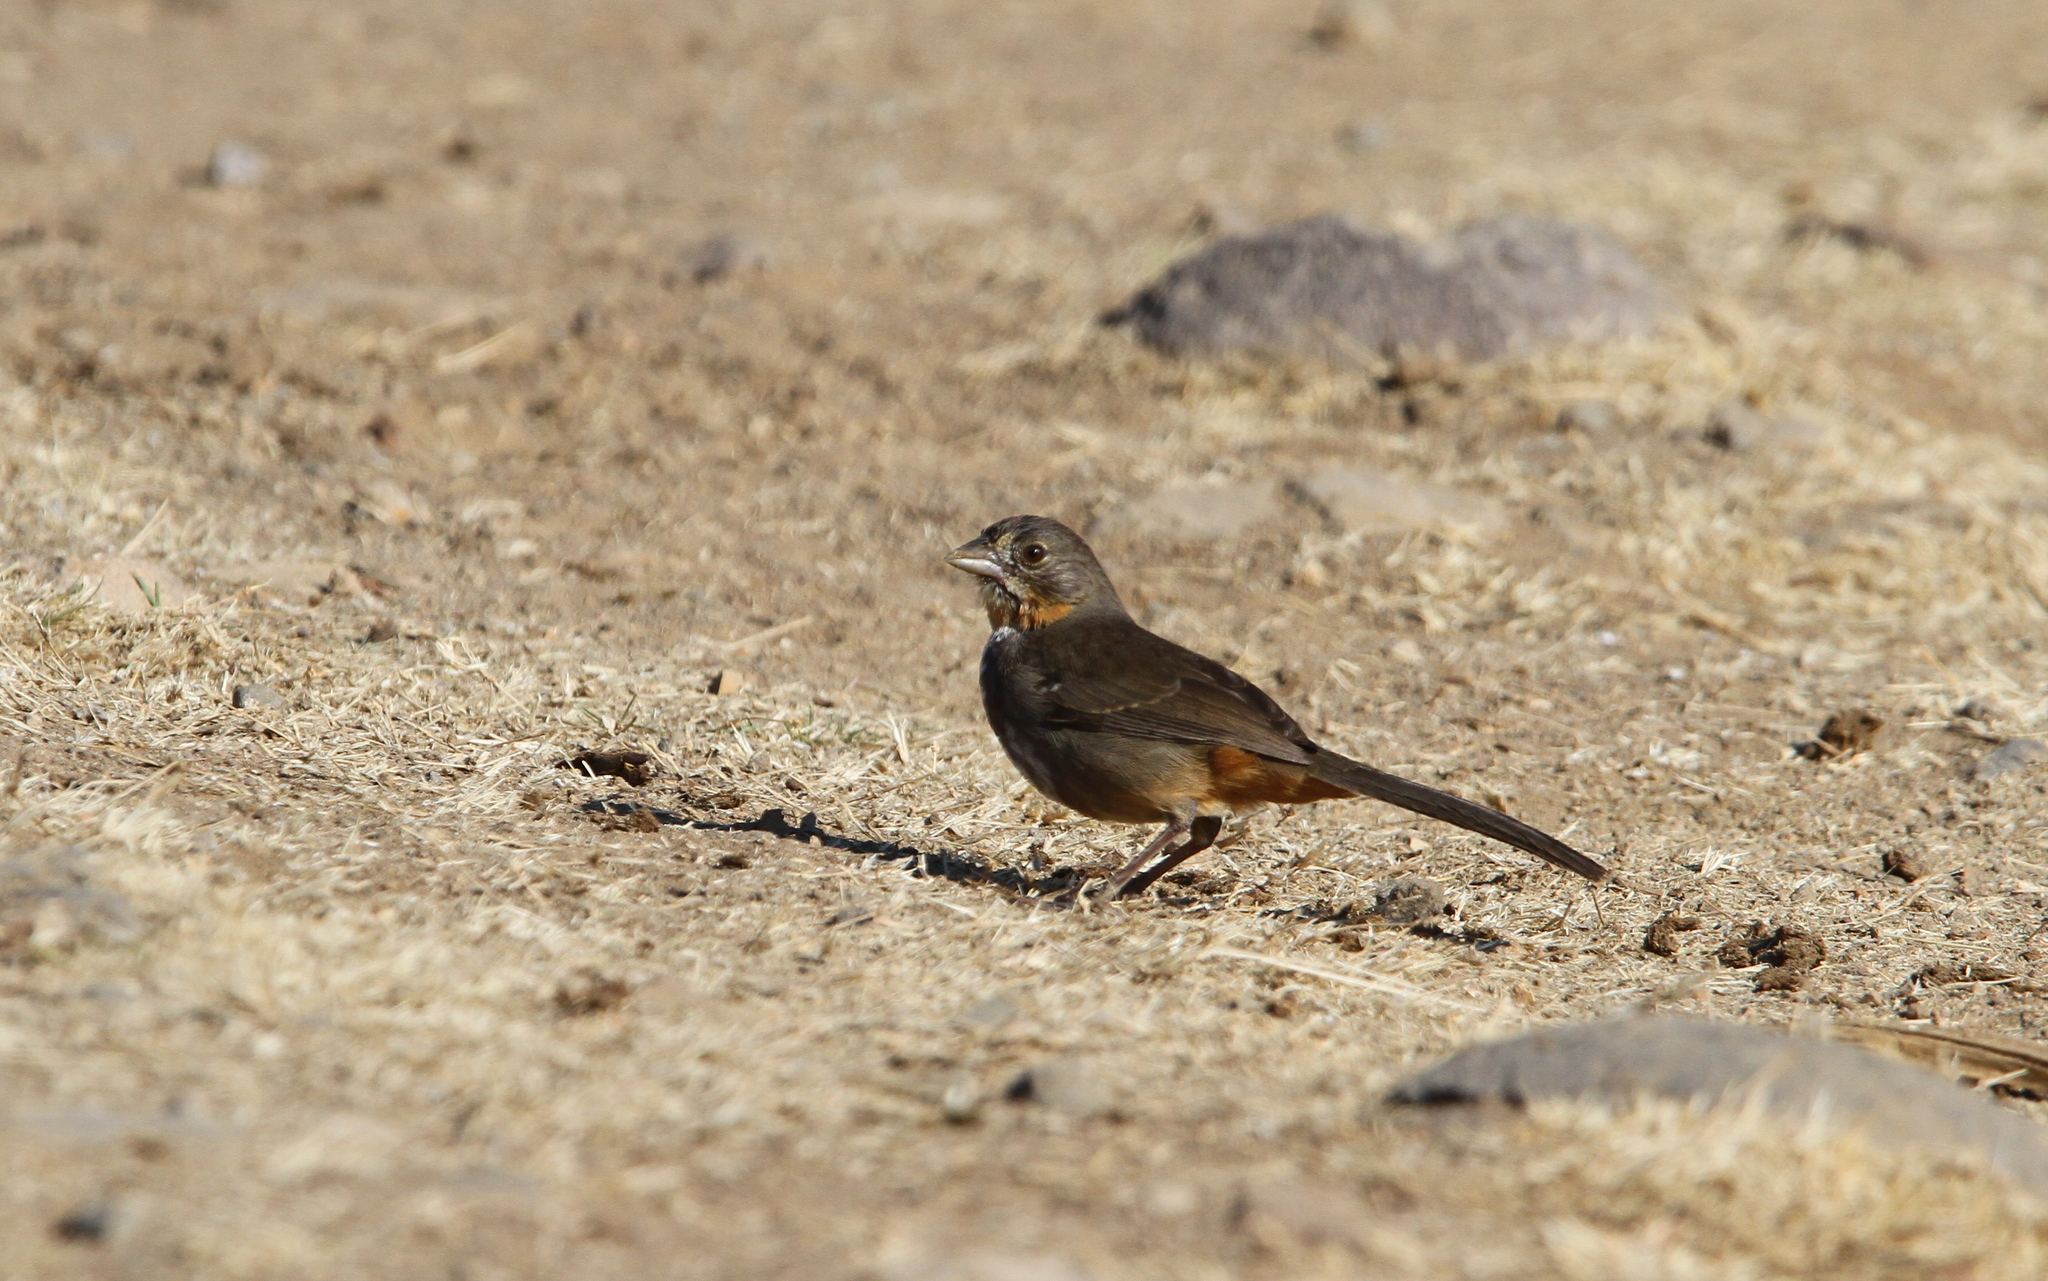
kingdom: Animalia
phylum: Chordata
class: Aves
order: Passeriformes
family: Passerellidae
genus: Melozone
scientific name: Melozone albicollis
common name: White-throated towhee
